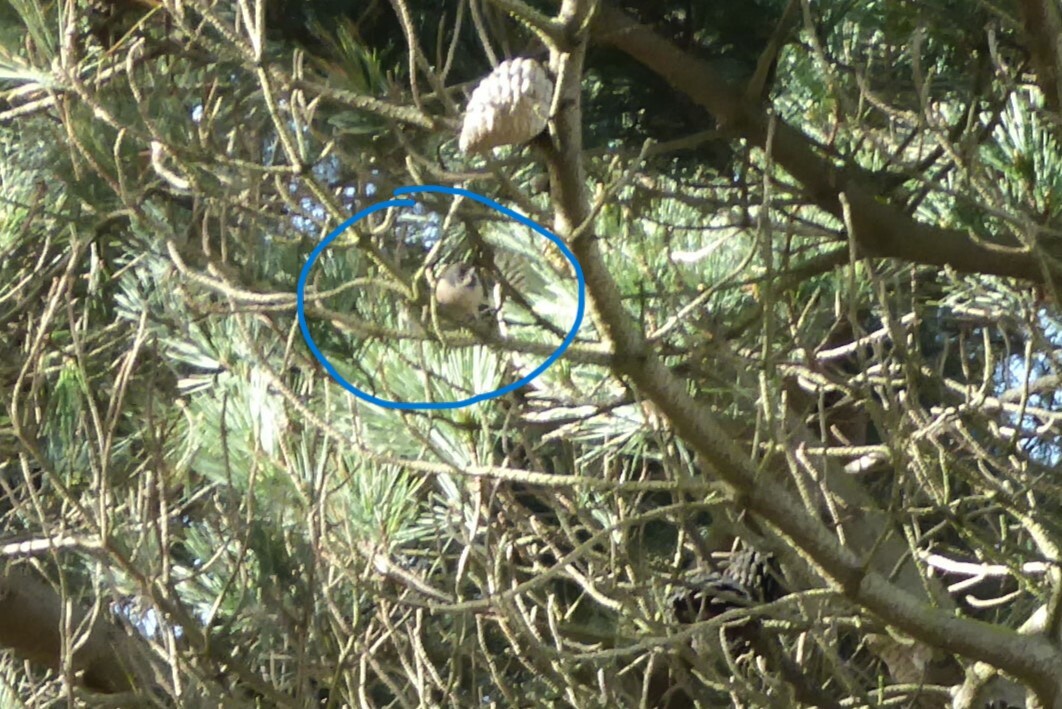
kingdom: Animalia
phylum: Chordata
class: Aves
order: Passeriformes
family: Acanthizidae
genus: Finschia
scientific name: Finschia novaeseelandiae
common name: Pipipi
